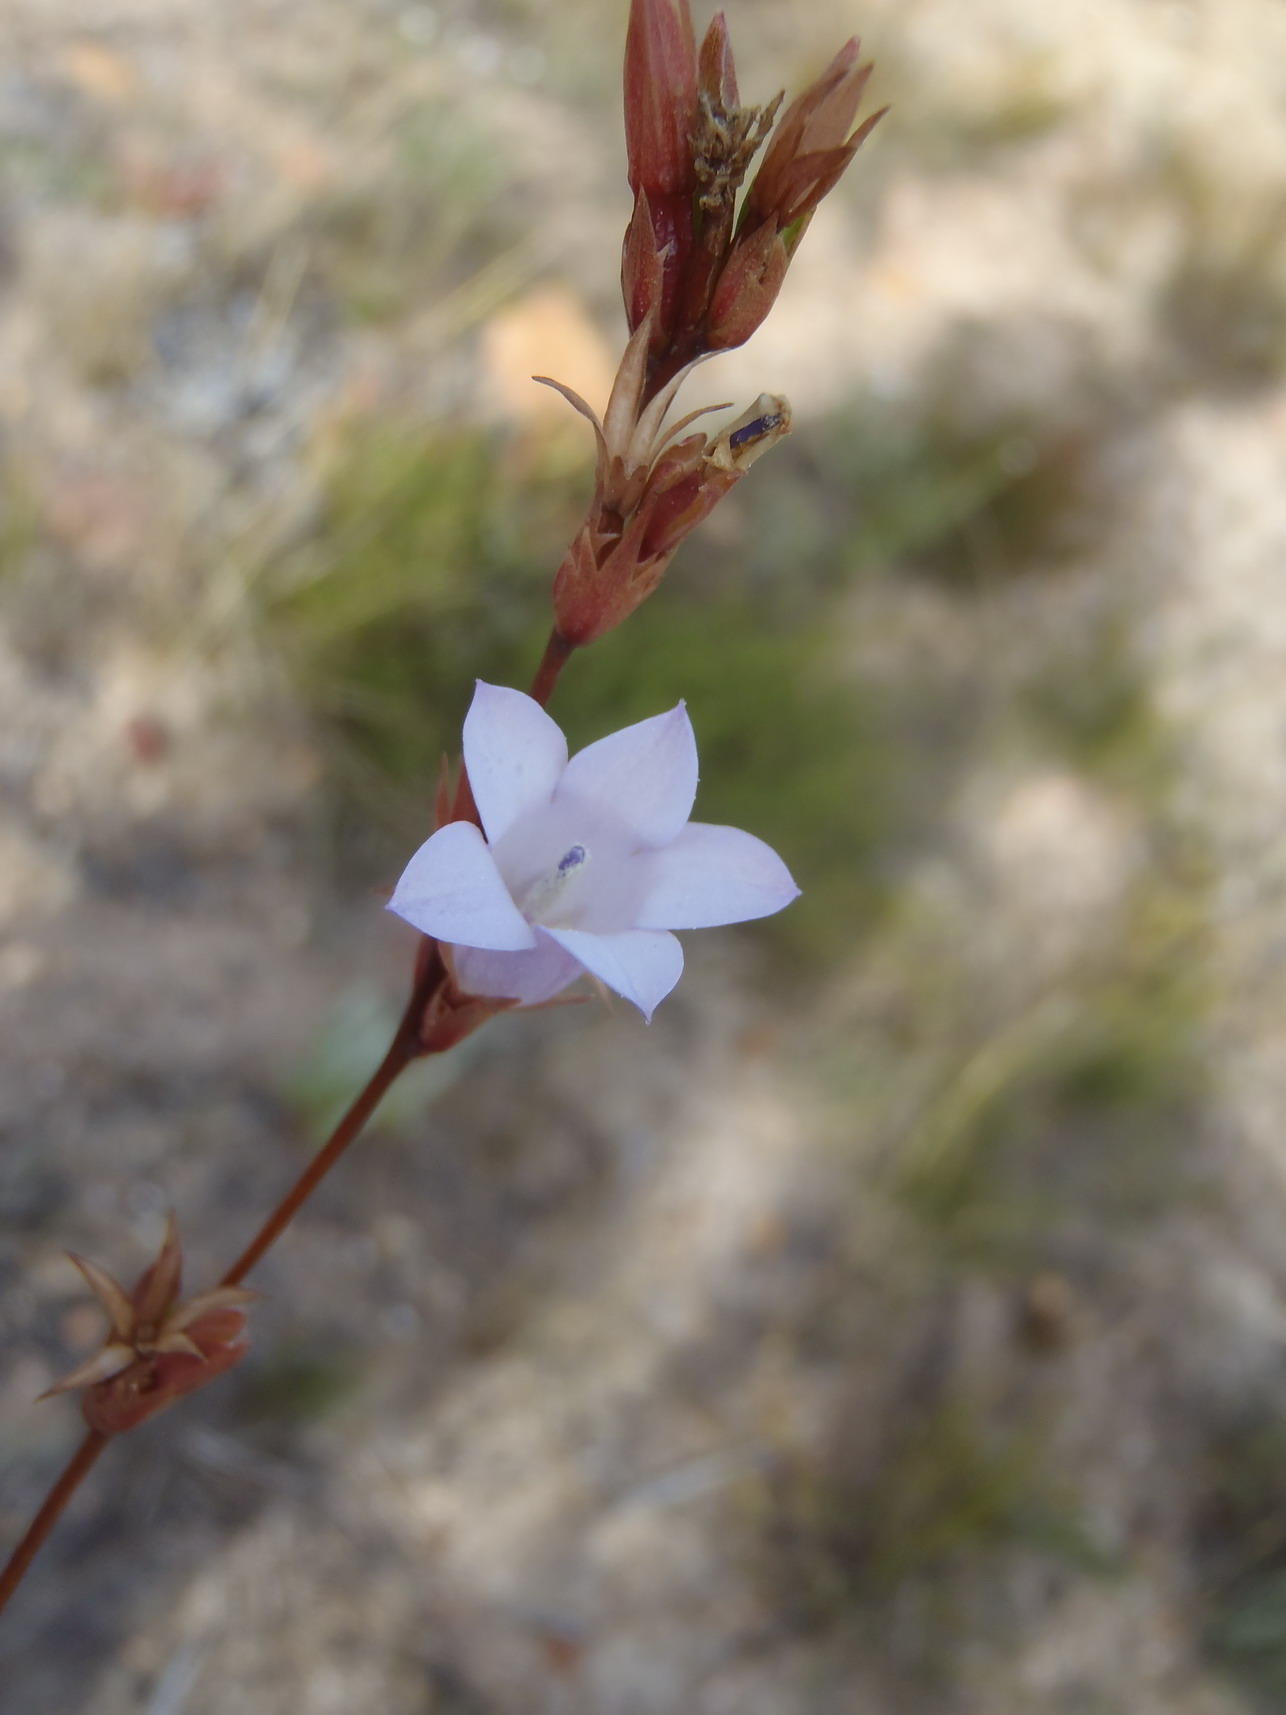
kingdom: Plantae
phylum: Tracheophyta
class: Magnoliopsida
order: Asterales
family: Campanulaceae
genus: Prismatocarpus
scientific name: Prismatocarpus candolleanus
